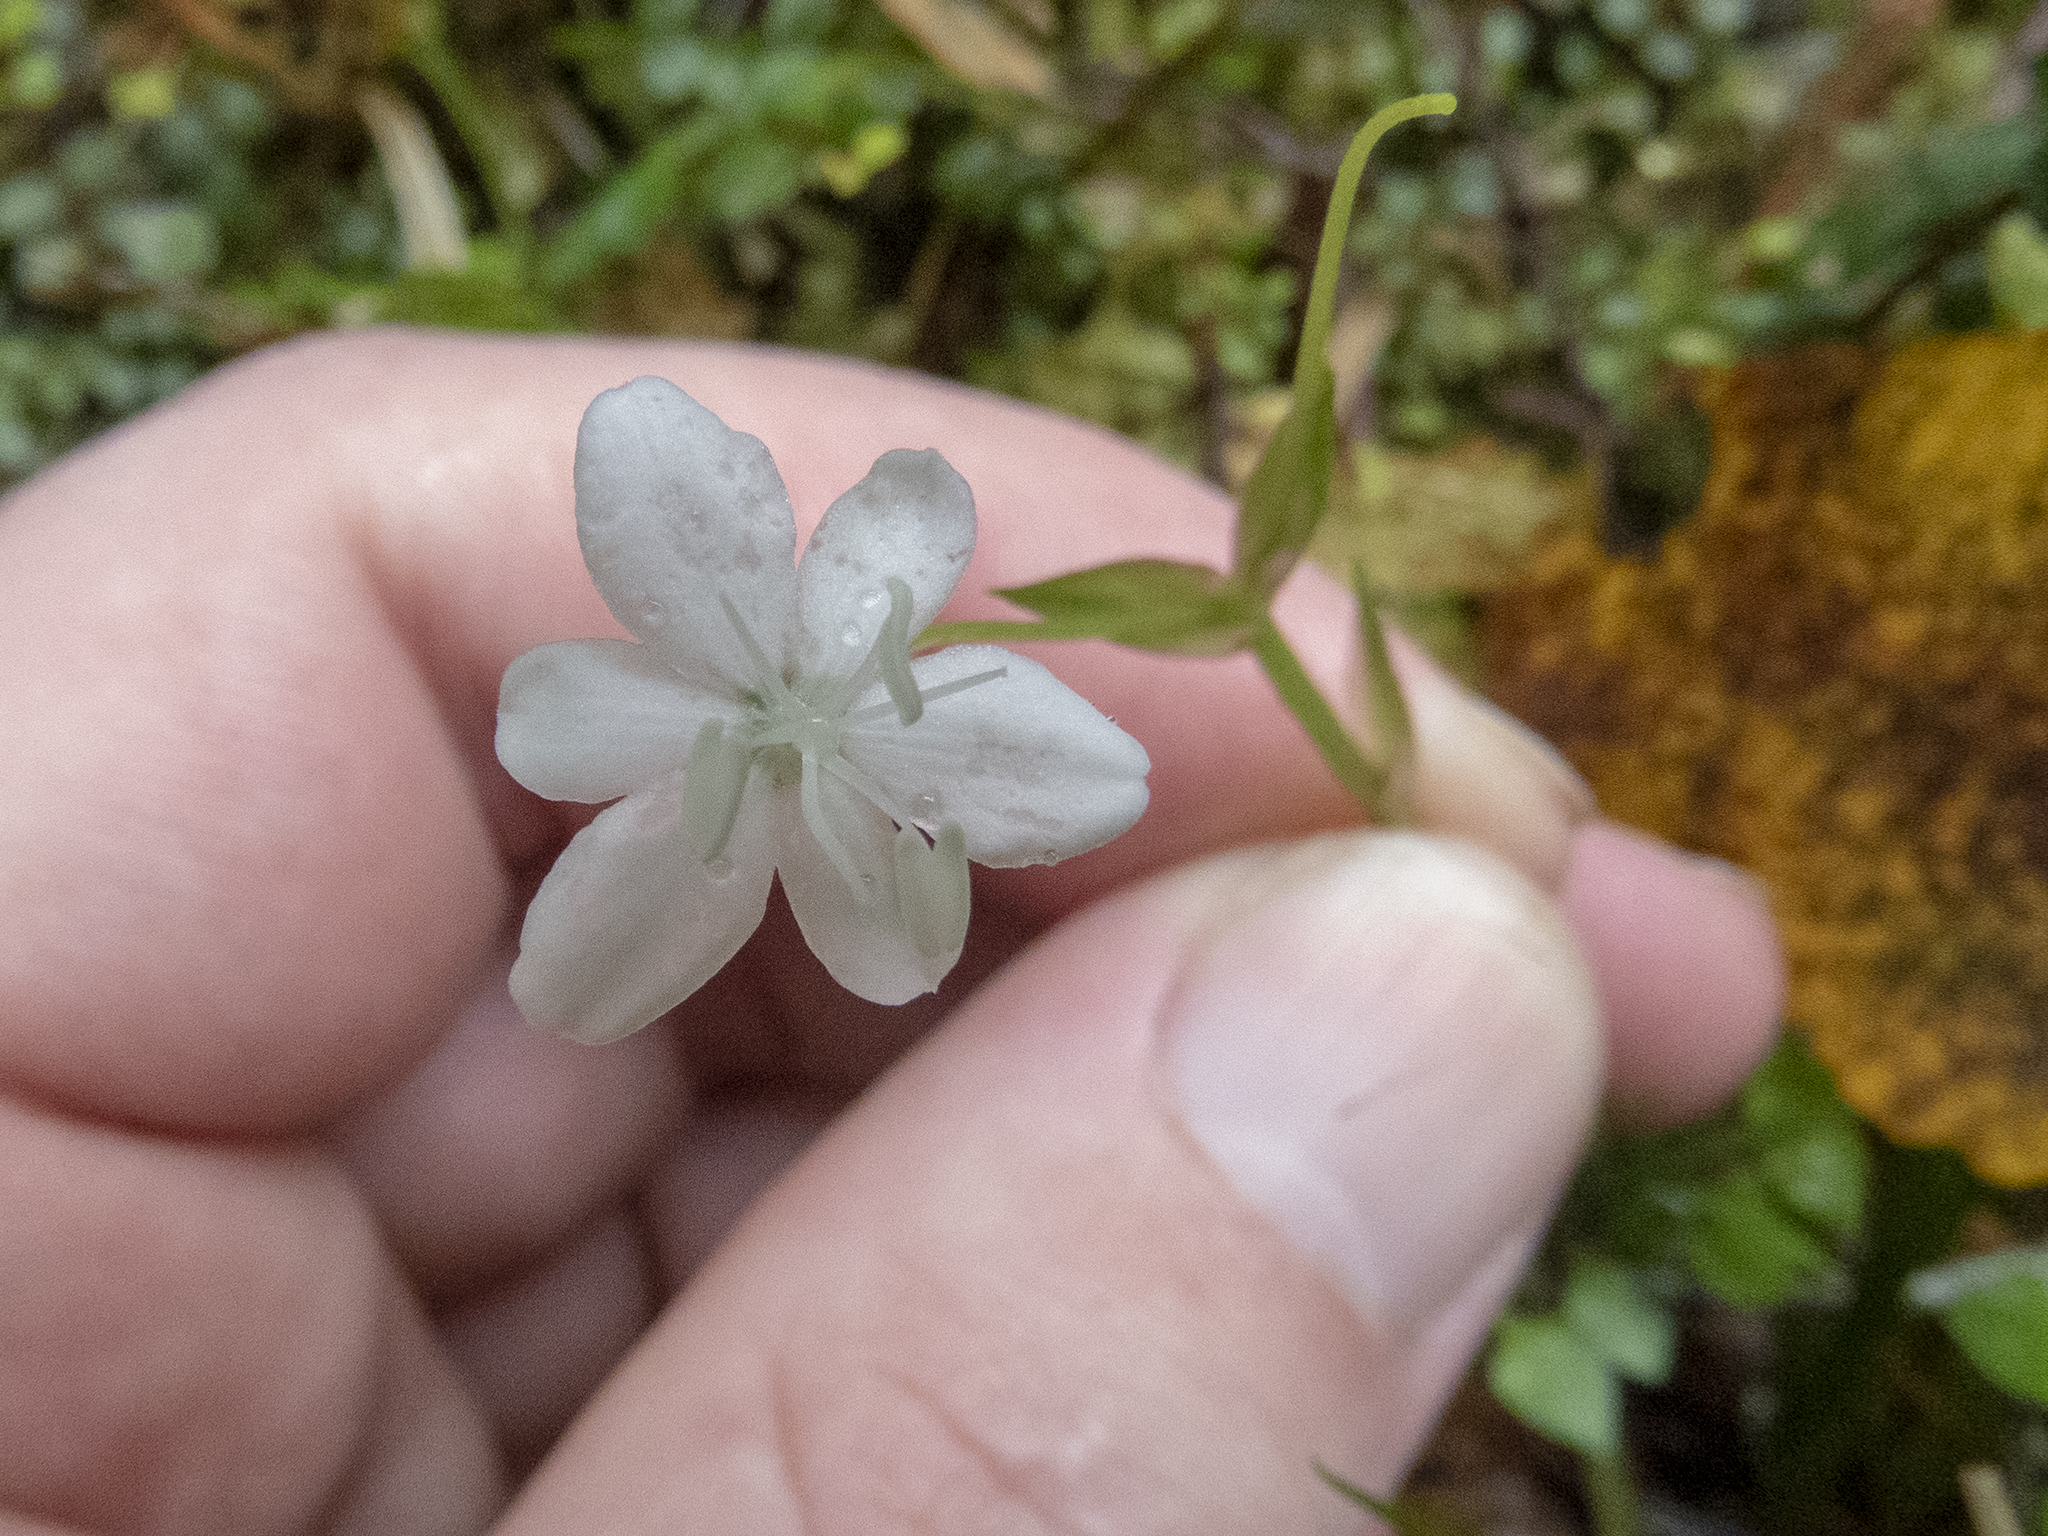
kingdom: Plantae
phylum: Tracheophyta
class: Liliopsida
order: Asparagales
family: Iridaceae
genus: Libertia
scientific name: Libertia micrantha
